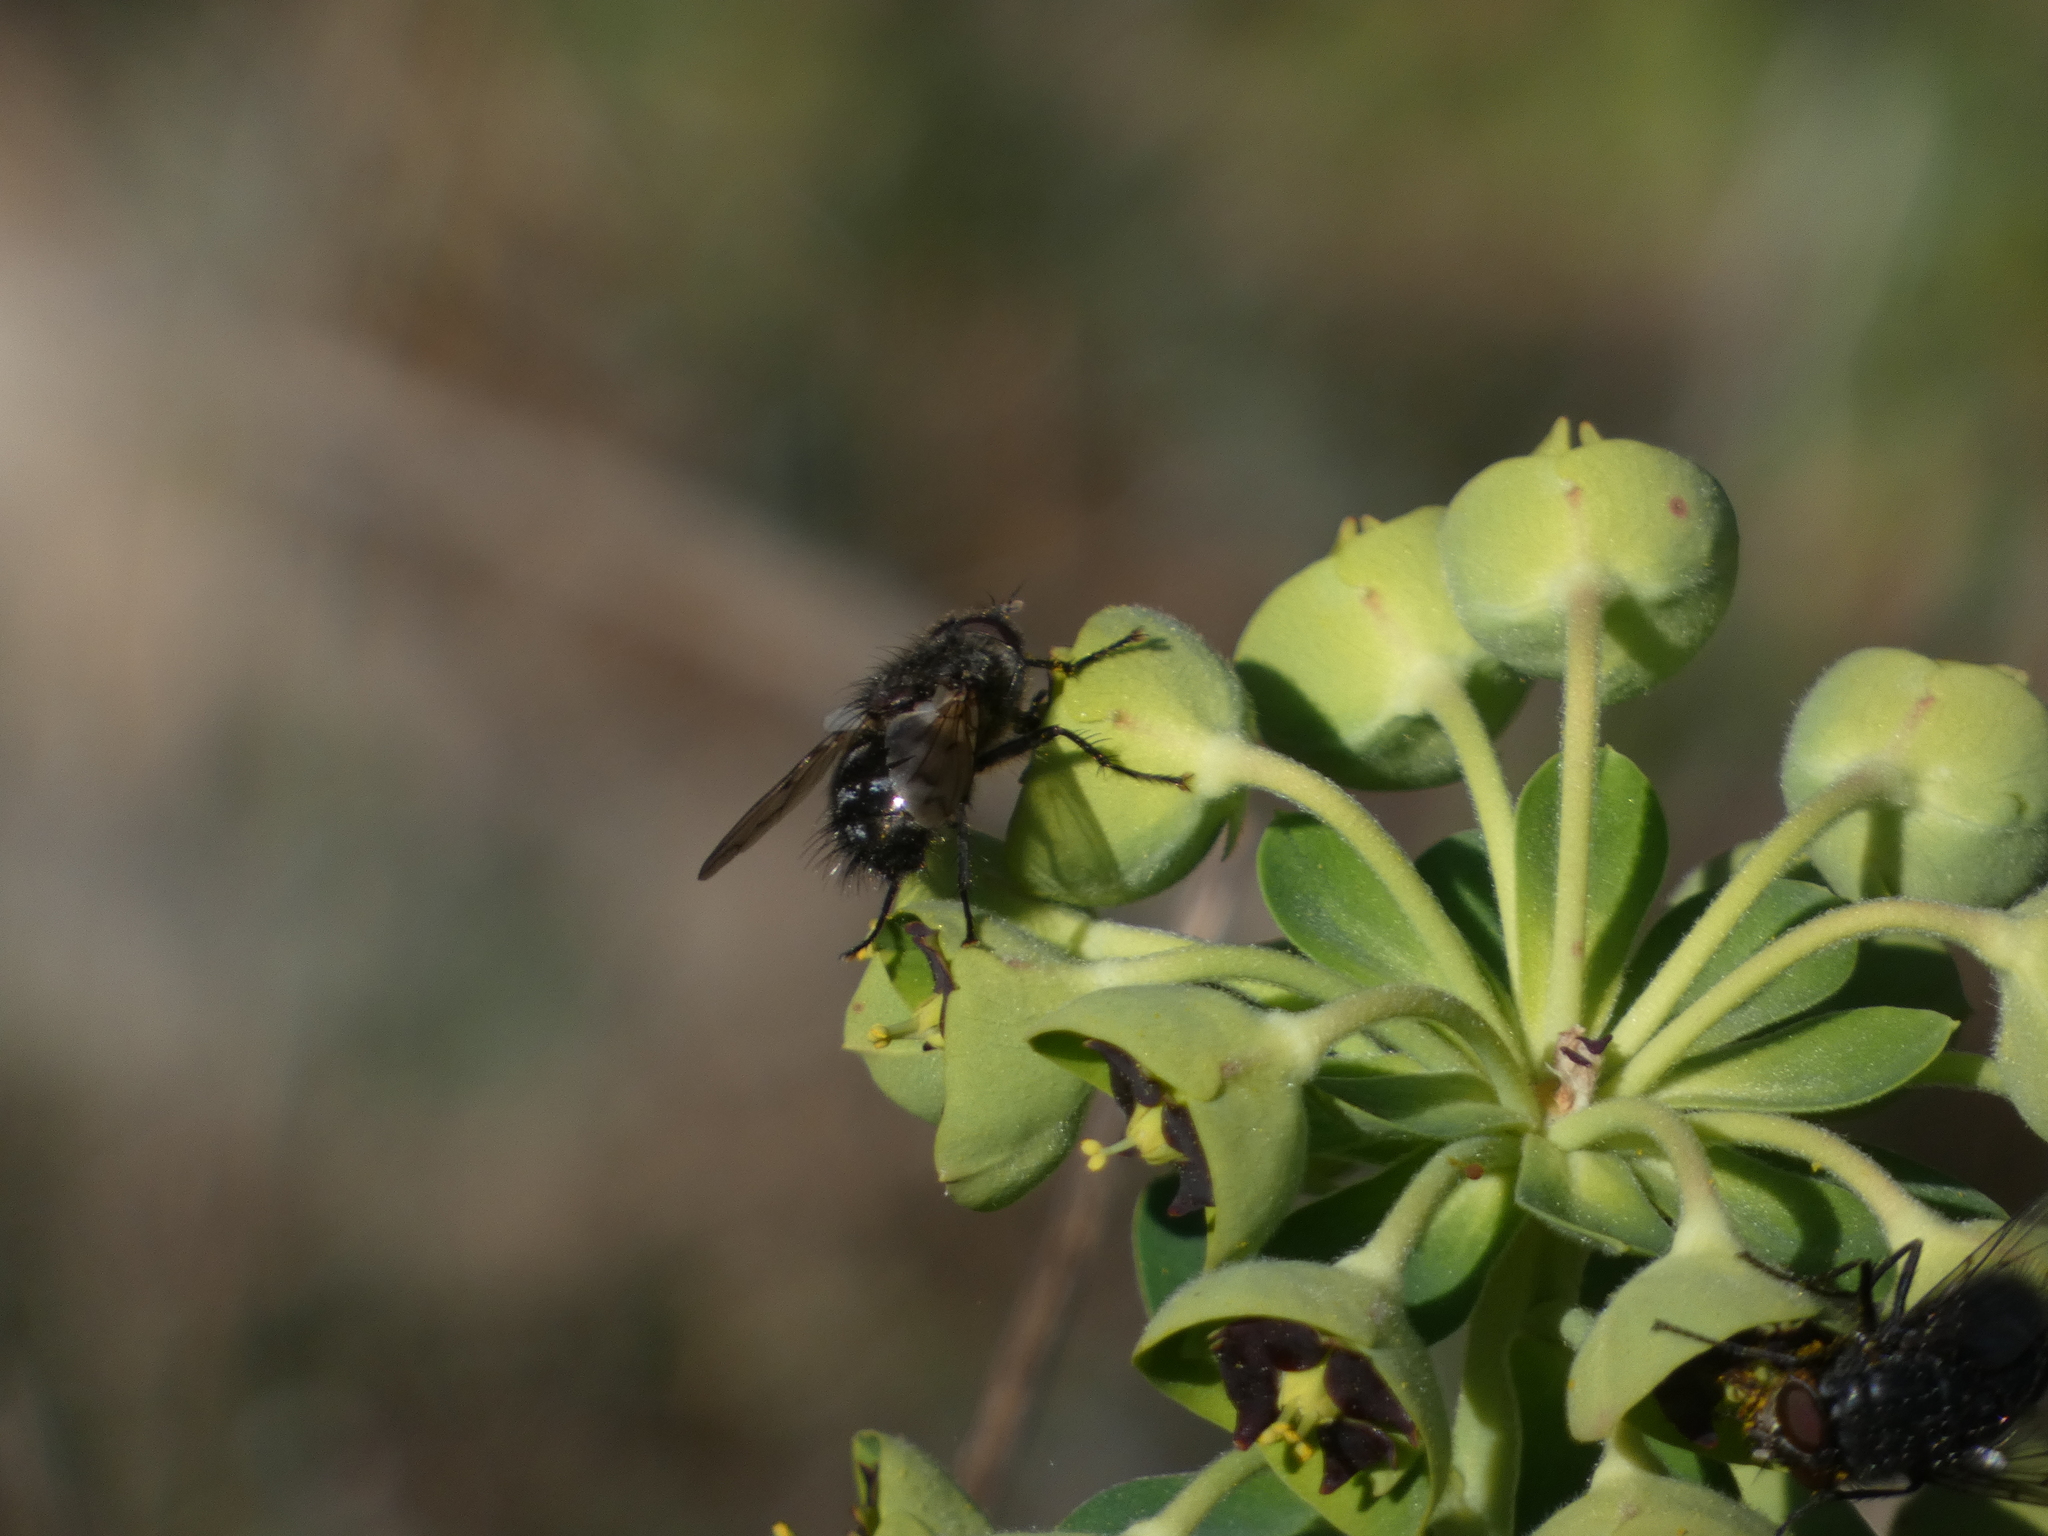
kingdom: Animalia
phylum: Arthropoda
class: Insecta
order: Diptera
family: Tachinidae
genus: Panzeria
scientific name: Panzeria puparum
